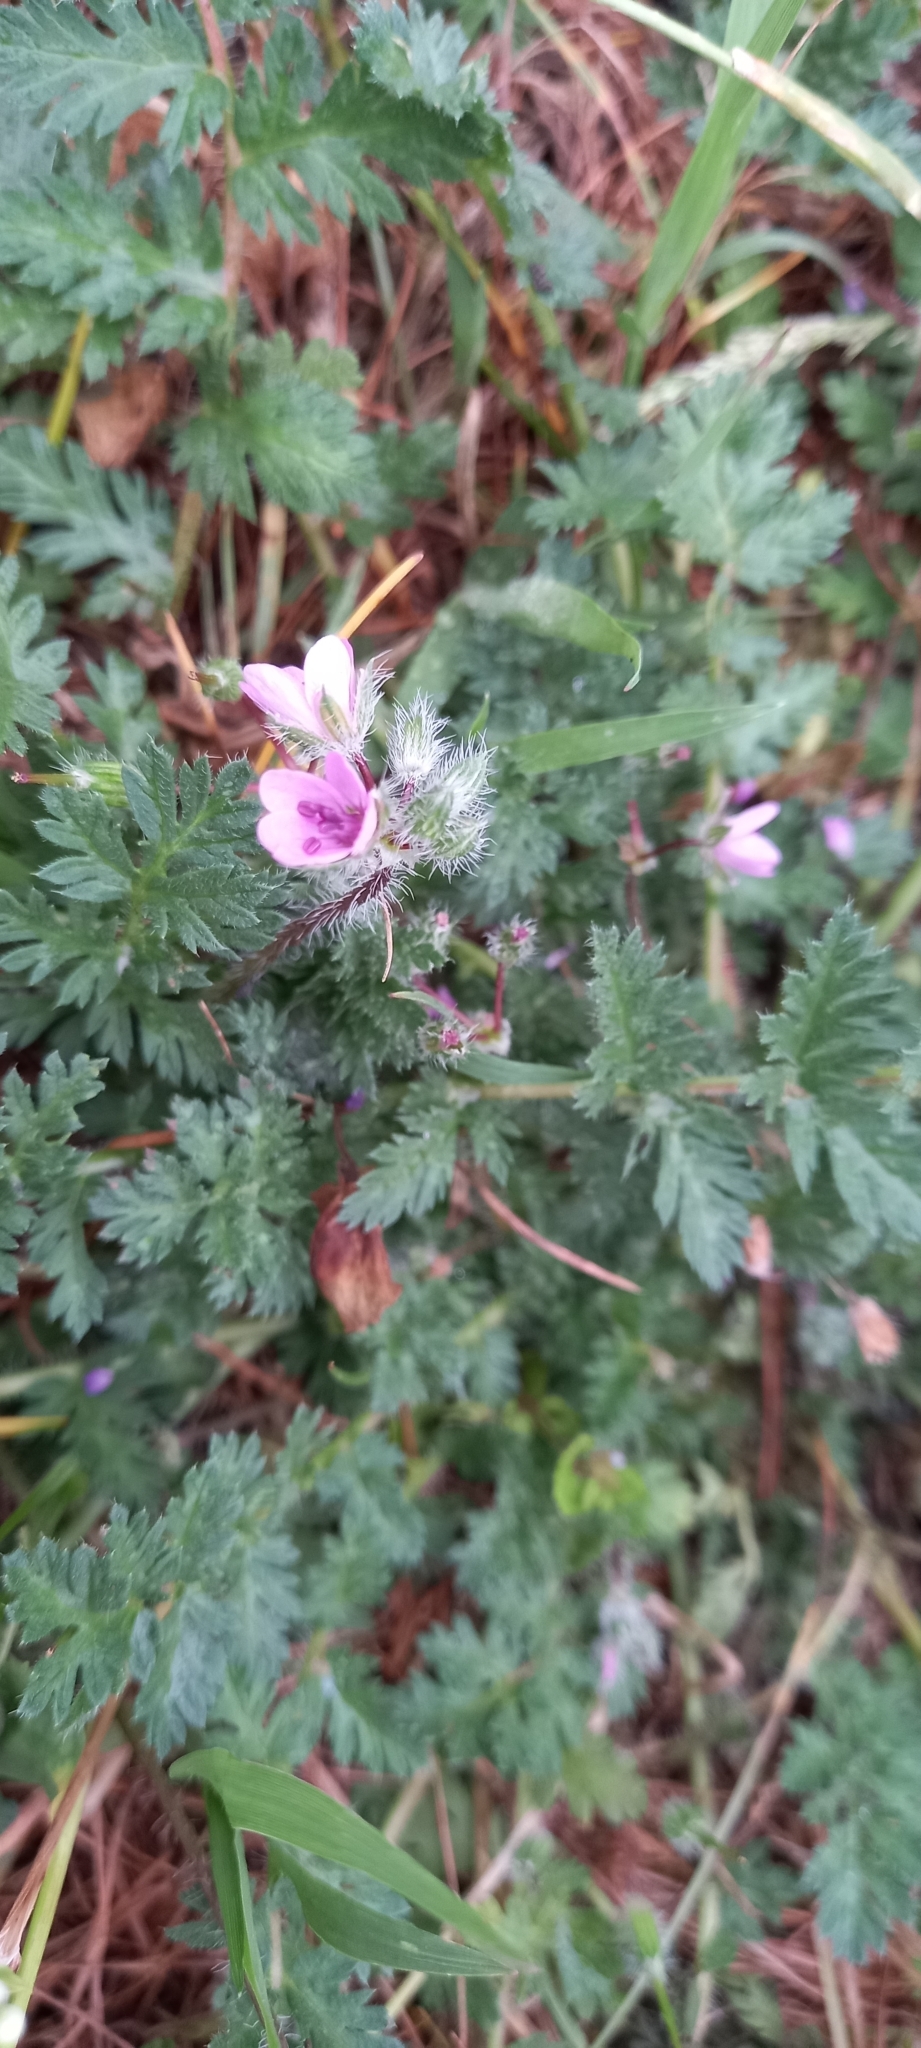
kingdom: Plantae
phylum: Tracheophyta
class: Magnoliopsida
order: Geraniales
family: Geraniaceae
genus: Erodium
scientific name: Erodium cicutarium
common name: Common stork's-bill
